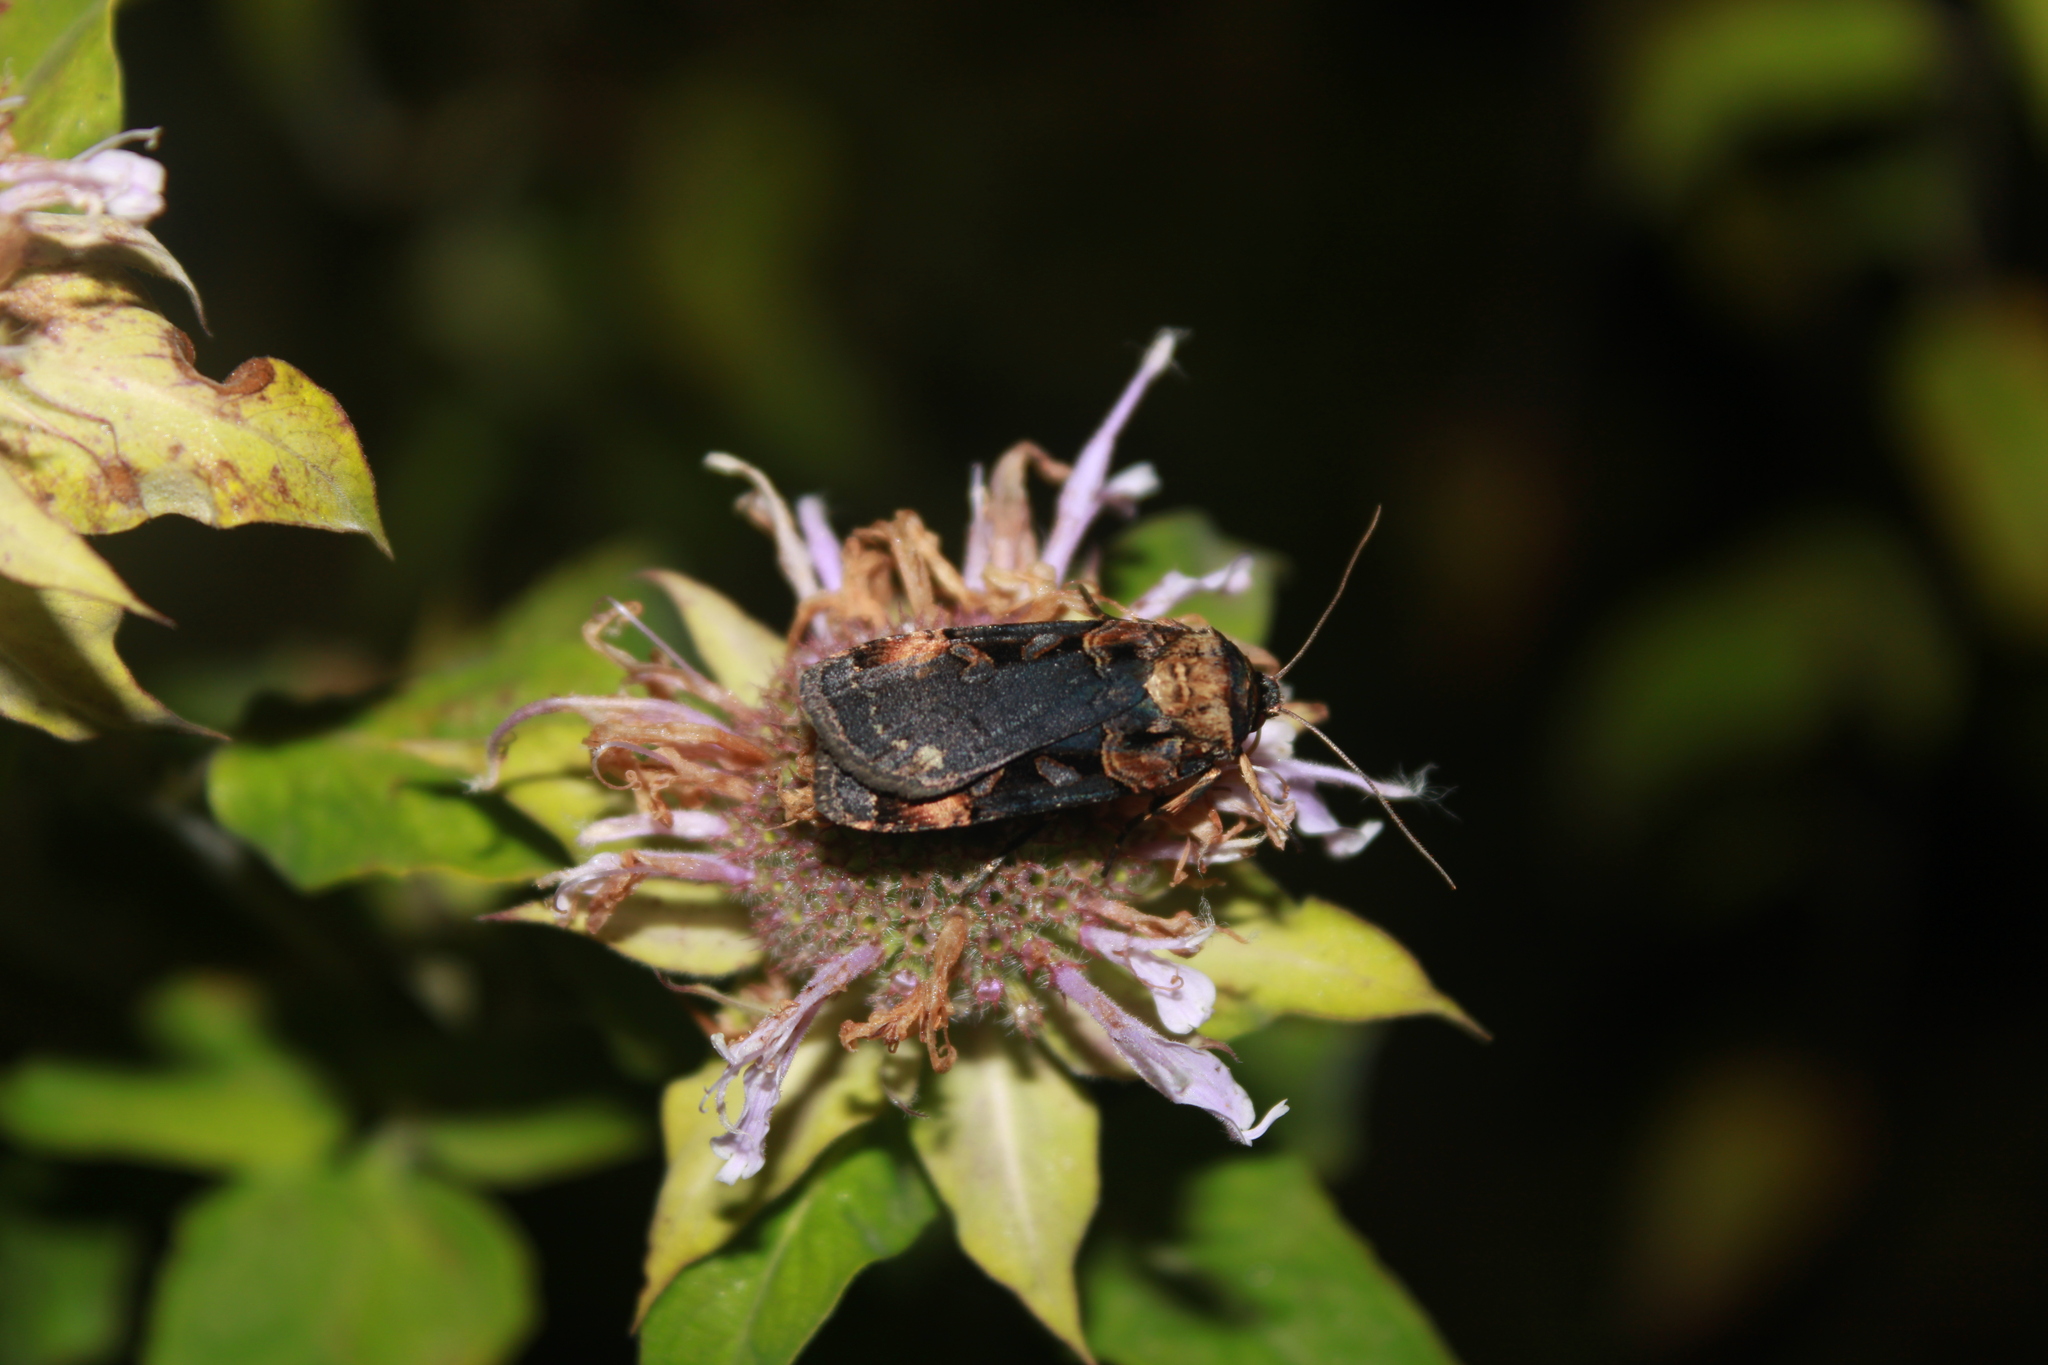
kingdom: Animalia
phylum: Arthropoda
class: Insecta
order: Lepidoptera
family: Noctuidae
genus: Pseudohermonassa
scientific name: Pseudohermonassa bicarnea
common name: Pink spotted dart
